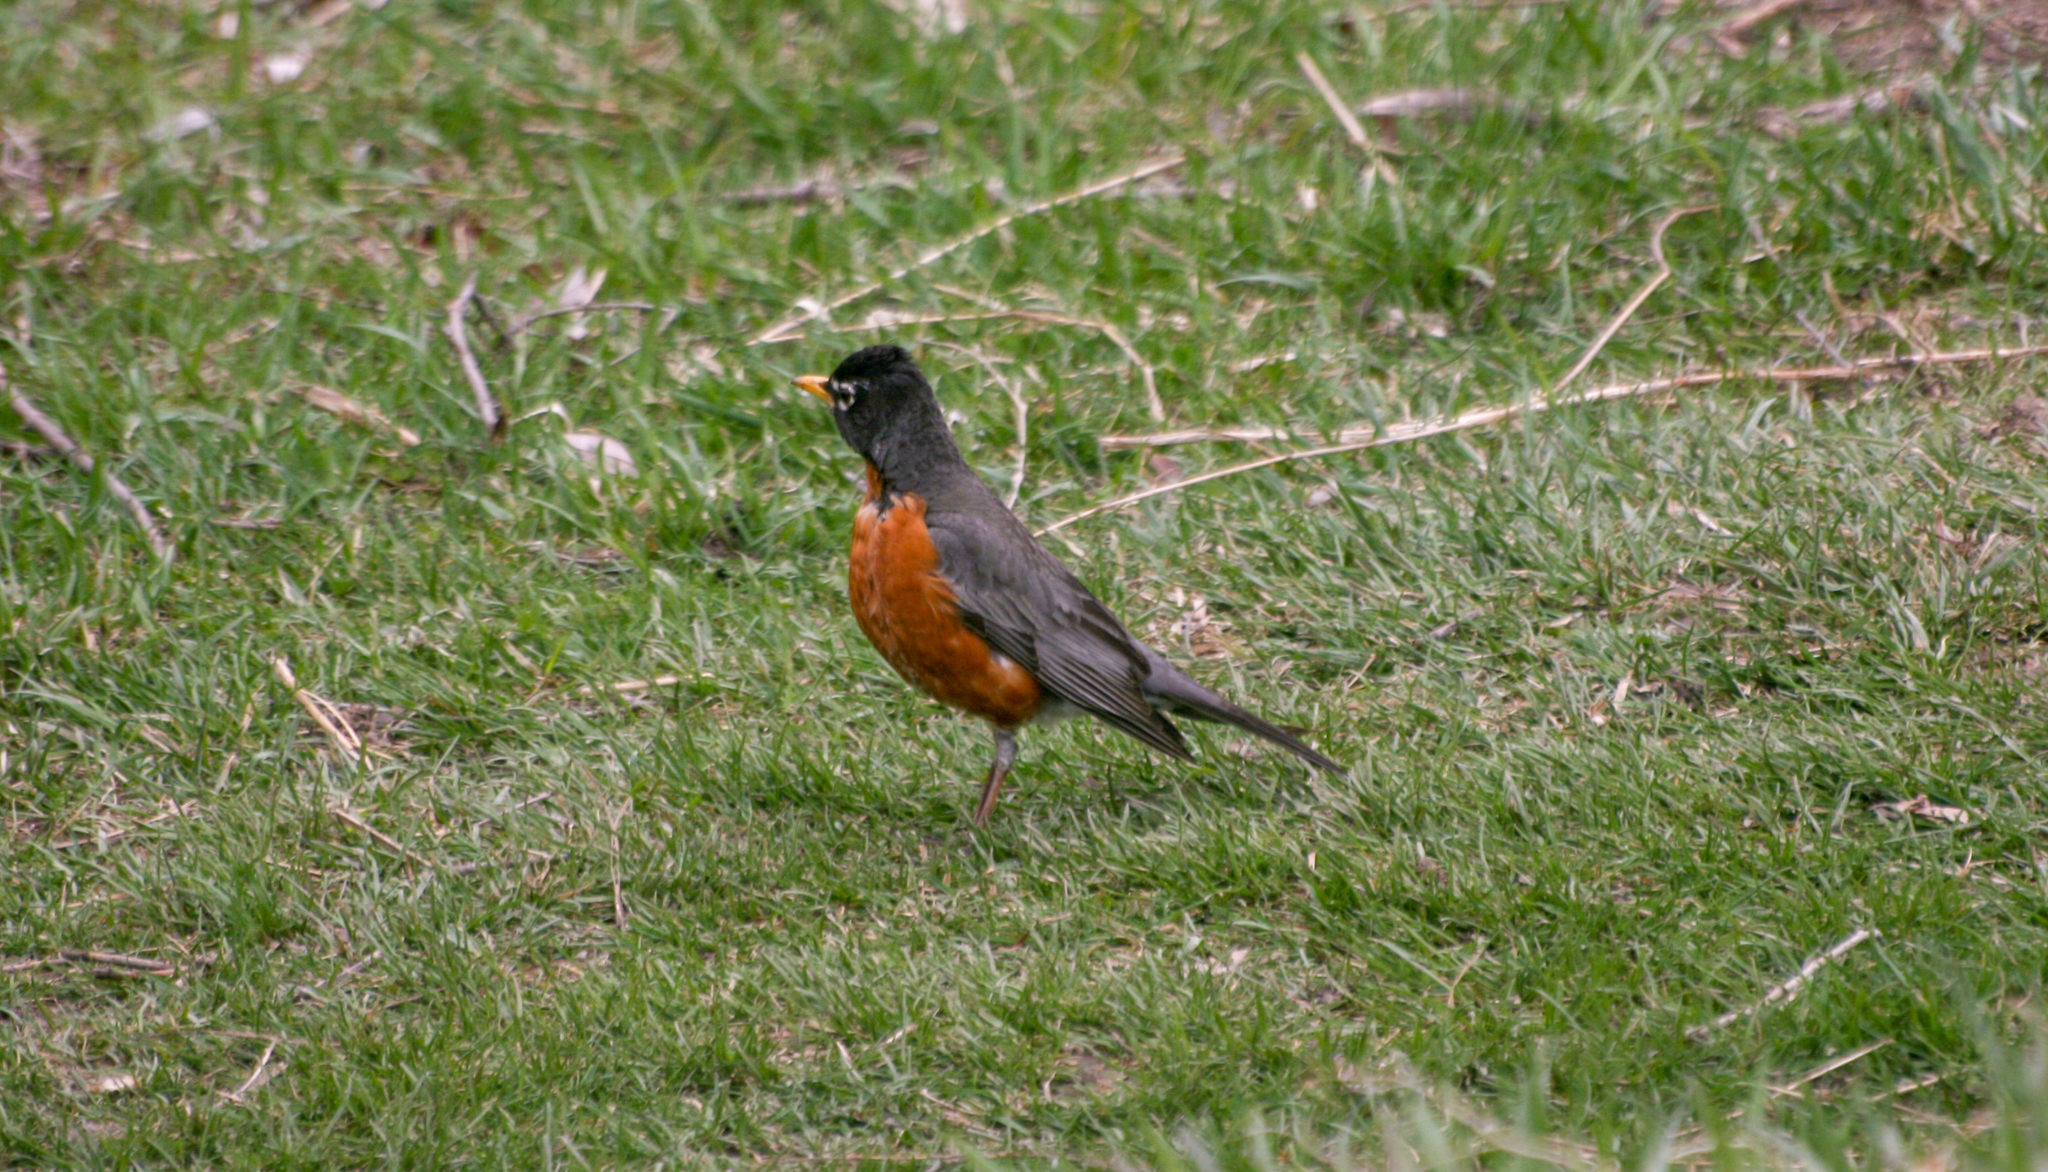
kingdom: Animalia
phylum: Chordata
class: Aves
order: Passeriformes
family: Turdidae
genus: Turdus
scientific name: Turdus migratorius
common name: American robin
